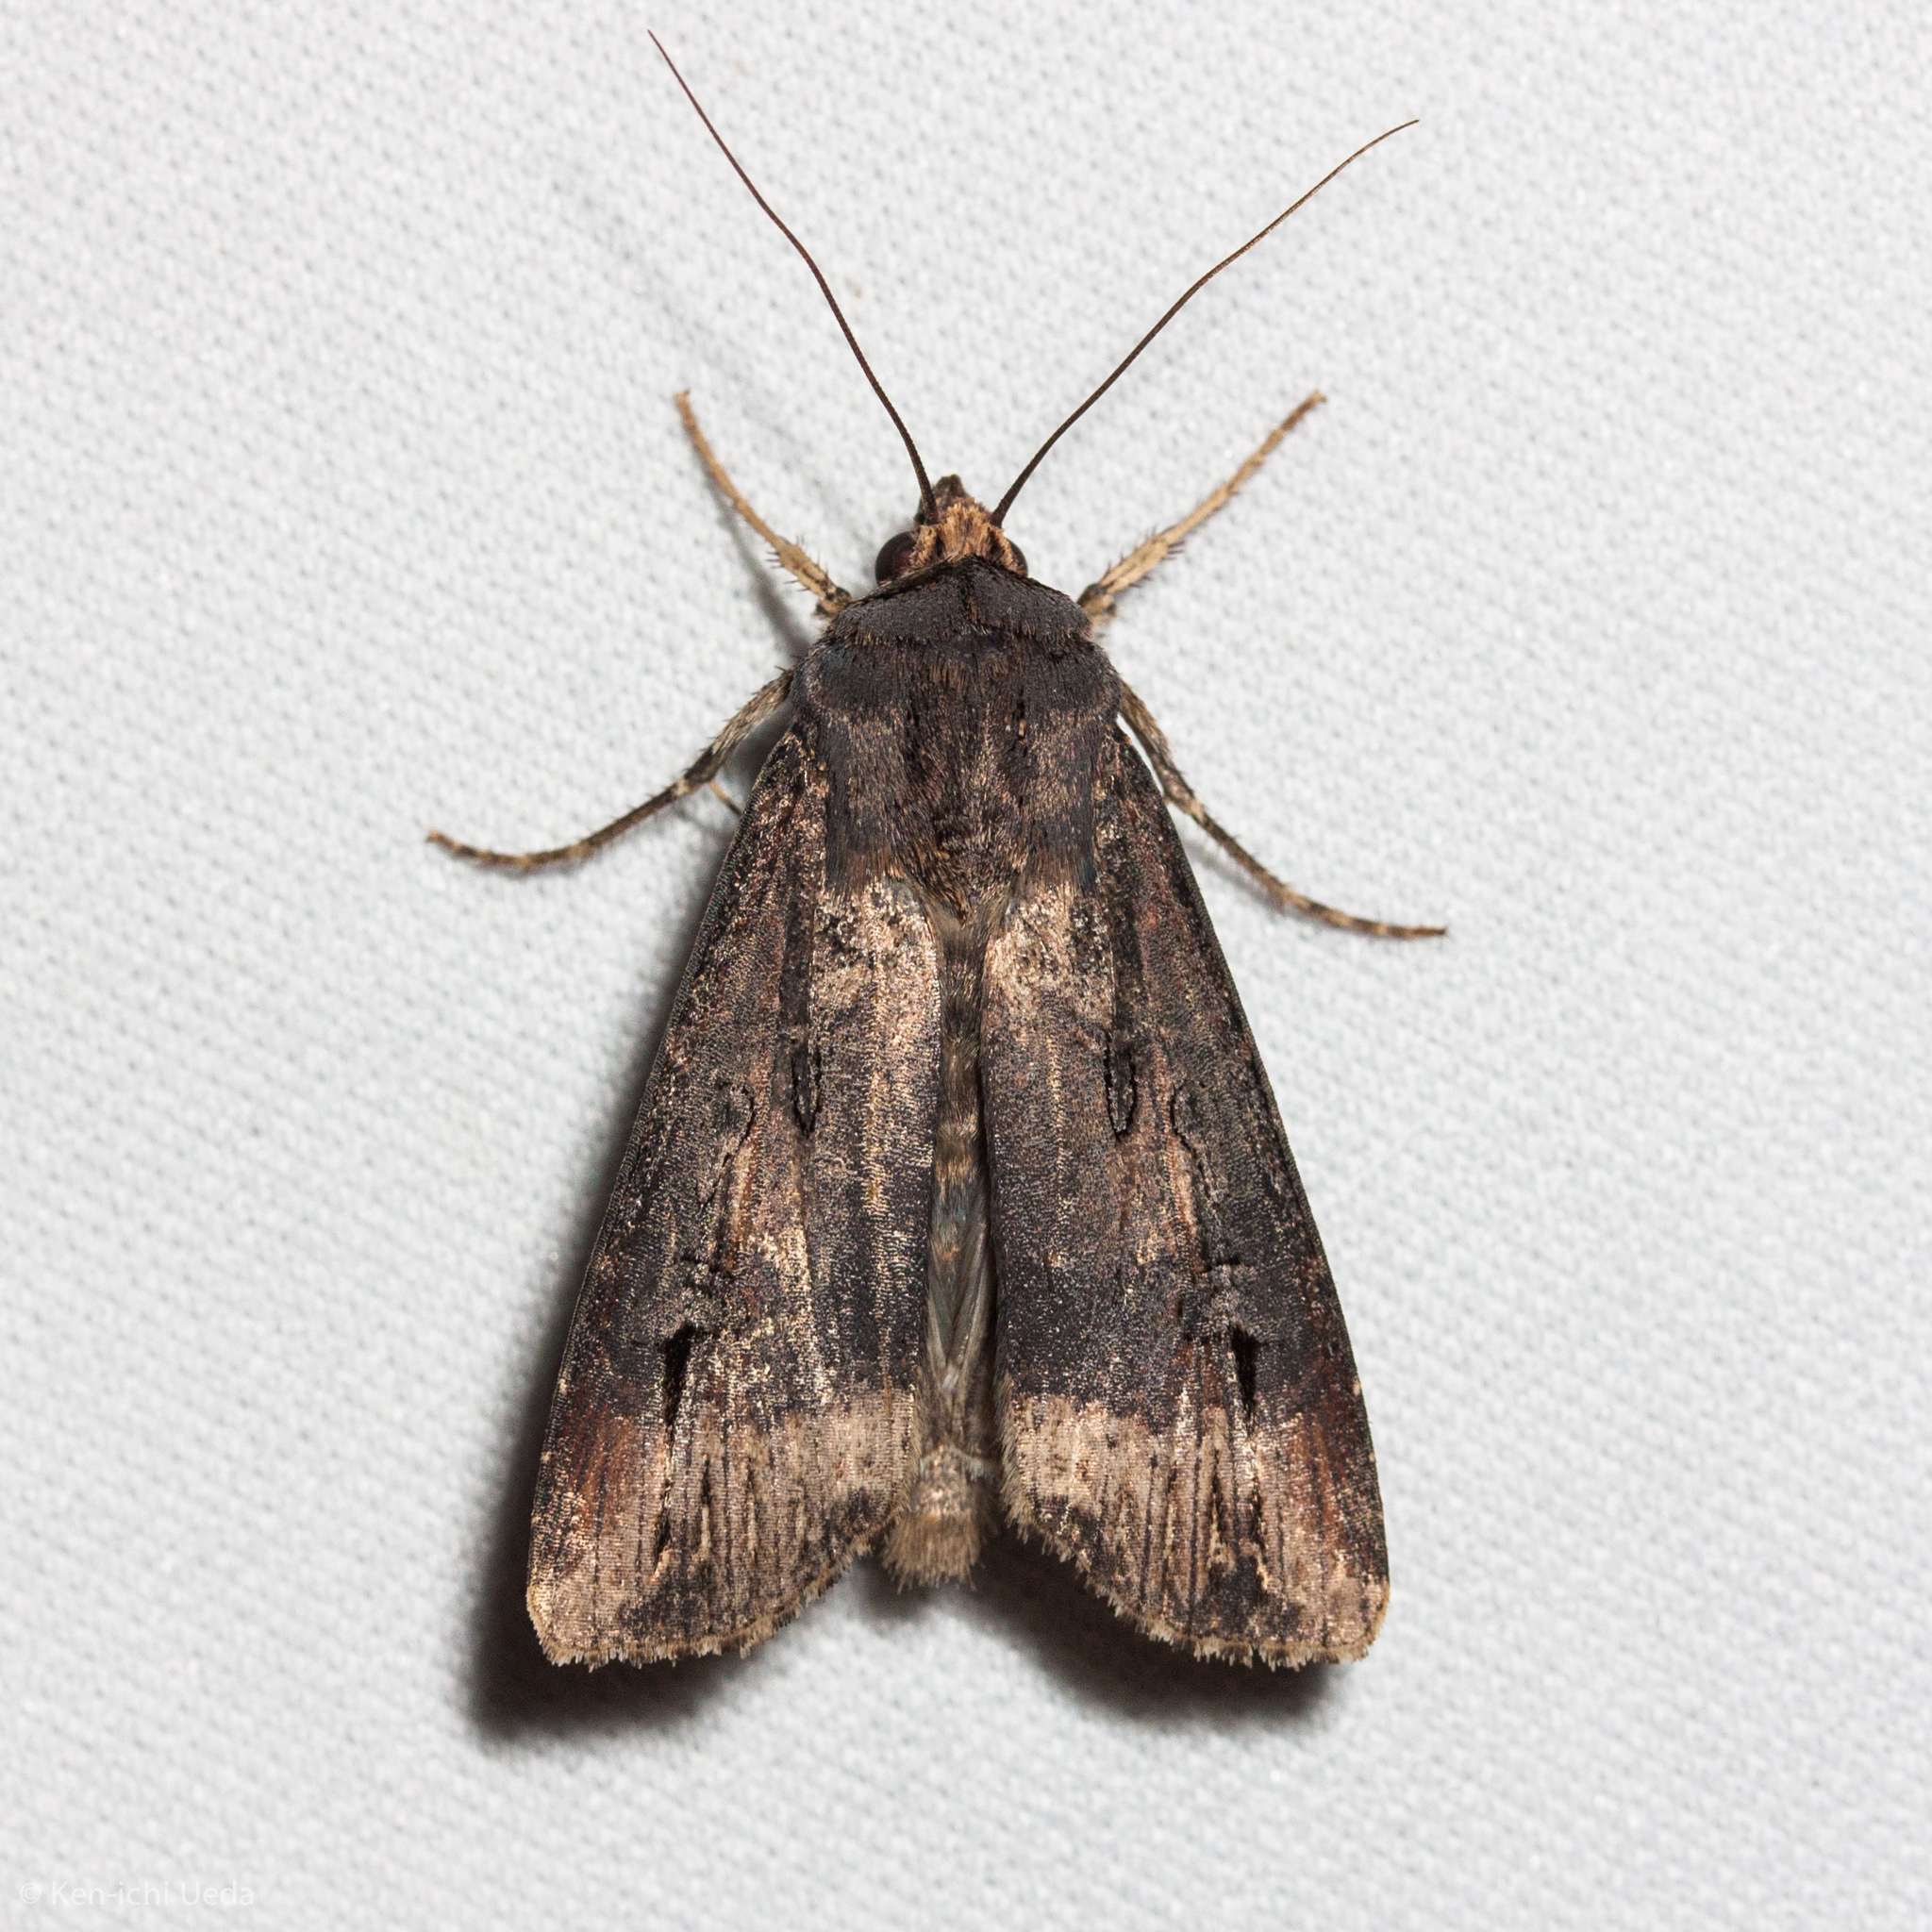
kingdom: Animalia
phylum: Arthropoda
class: Insecta
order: Lepidoptera
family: Noctuidae
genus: Agrotis
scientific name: Agrotis ipsilon
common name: Dark sword-grass
